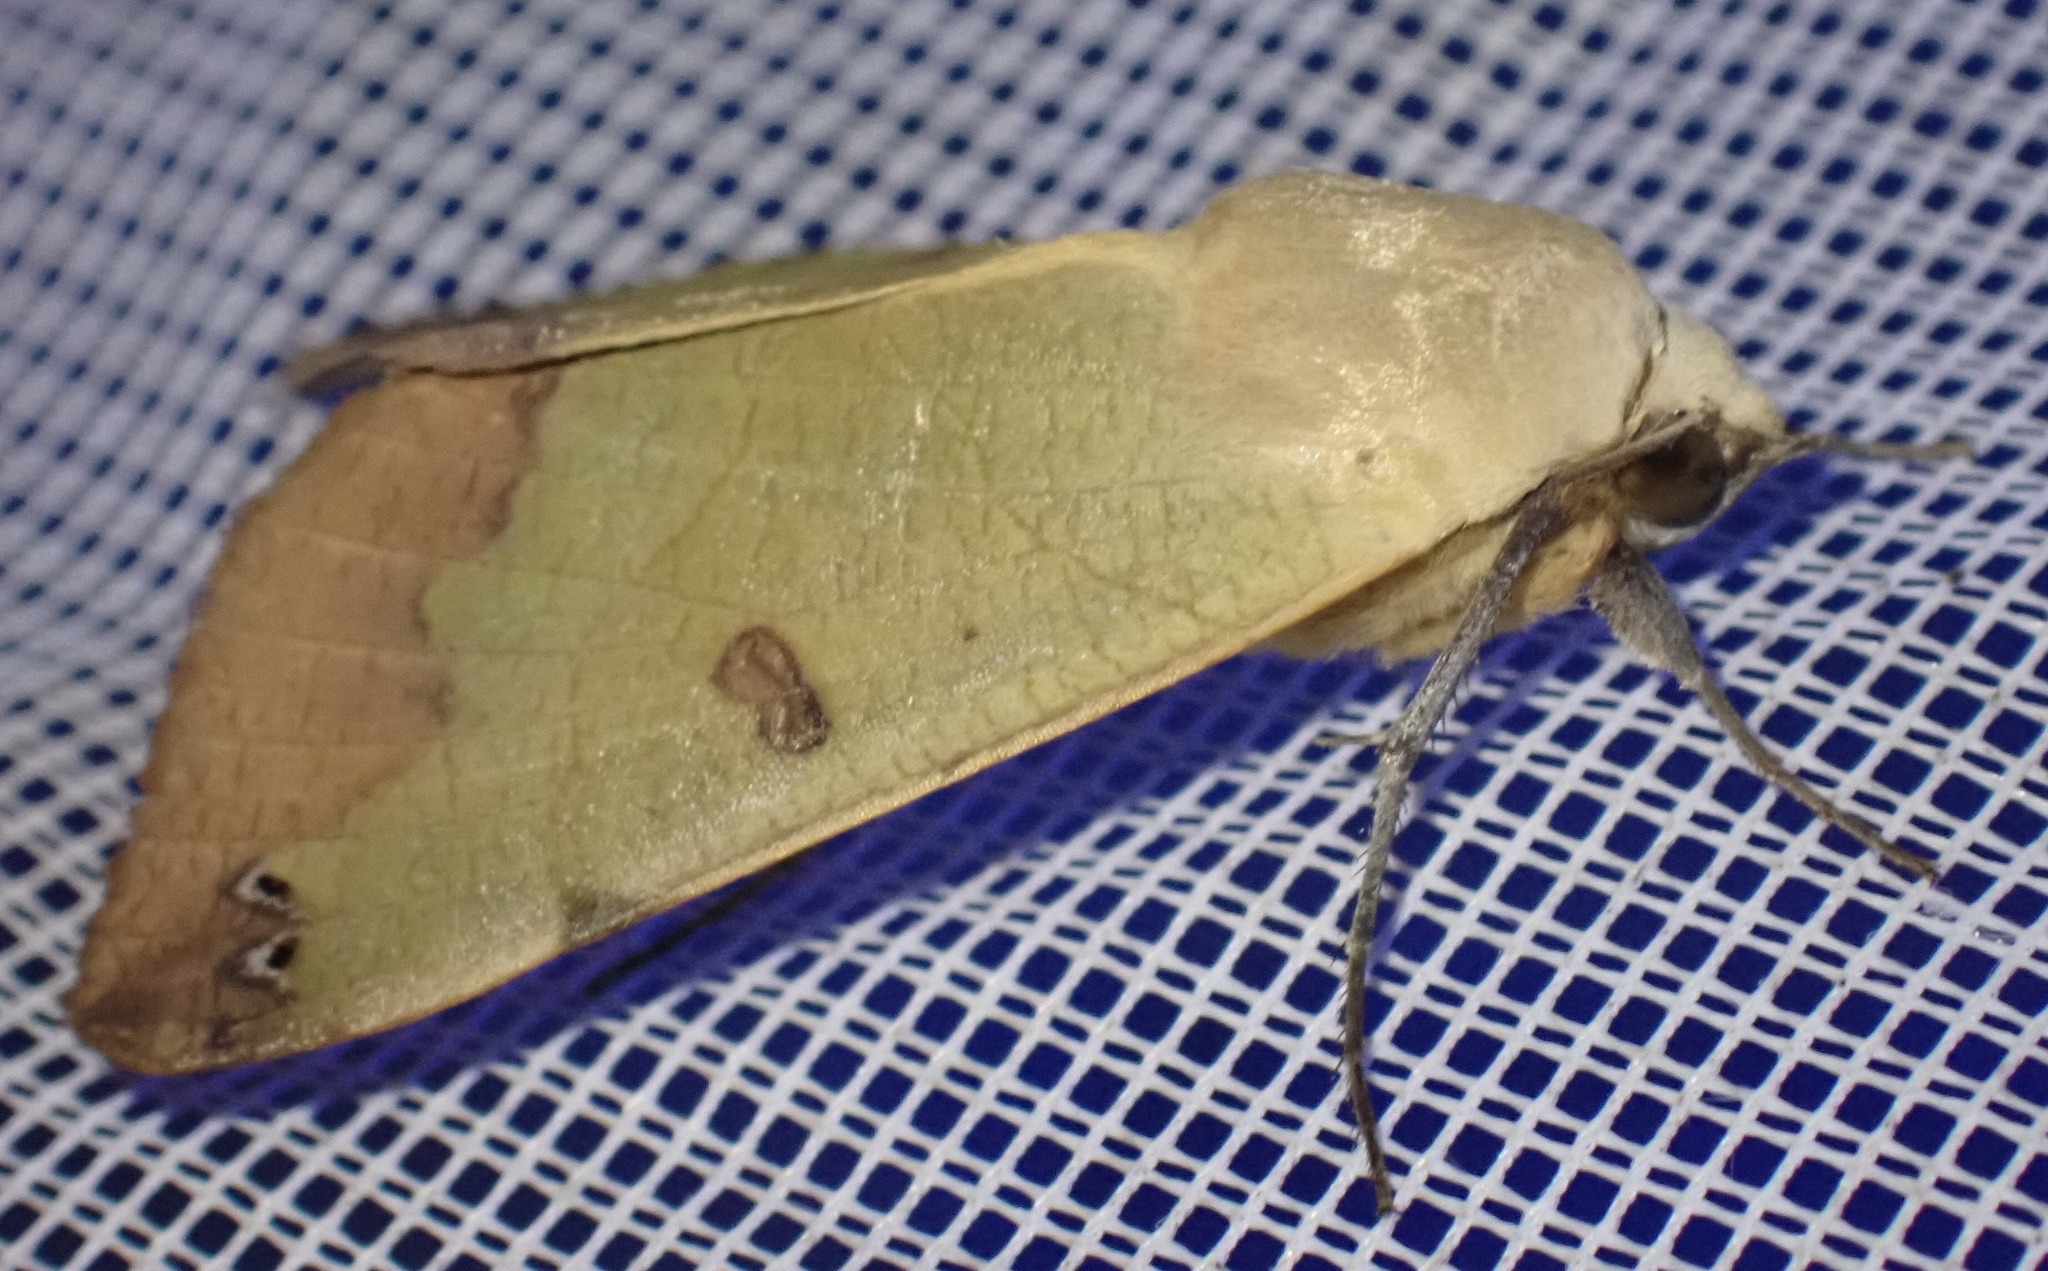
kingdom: Animalia
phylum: Arthropoda
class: Insecta
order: Lepidoptera
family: Erebidae
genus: Ophiusa
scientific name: Ophiusa tirhaca
